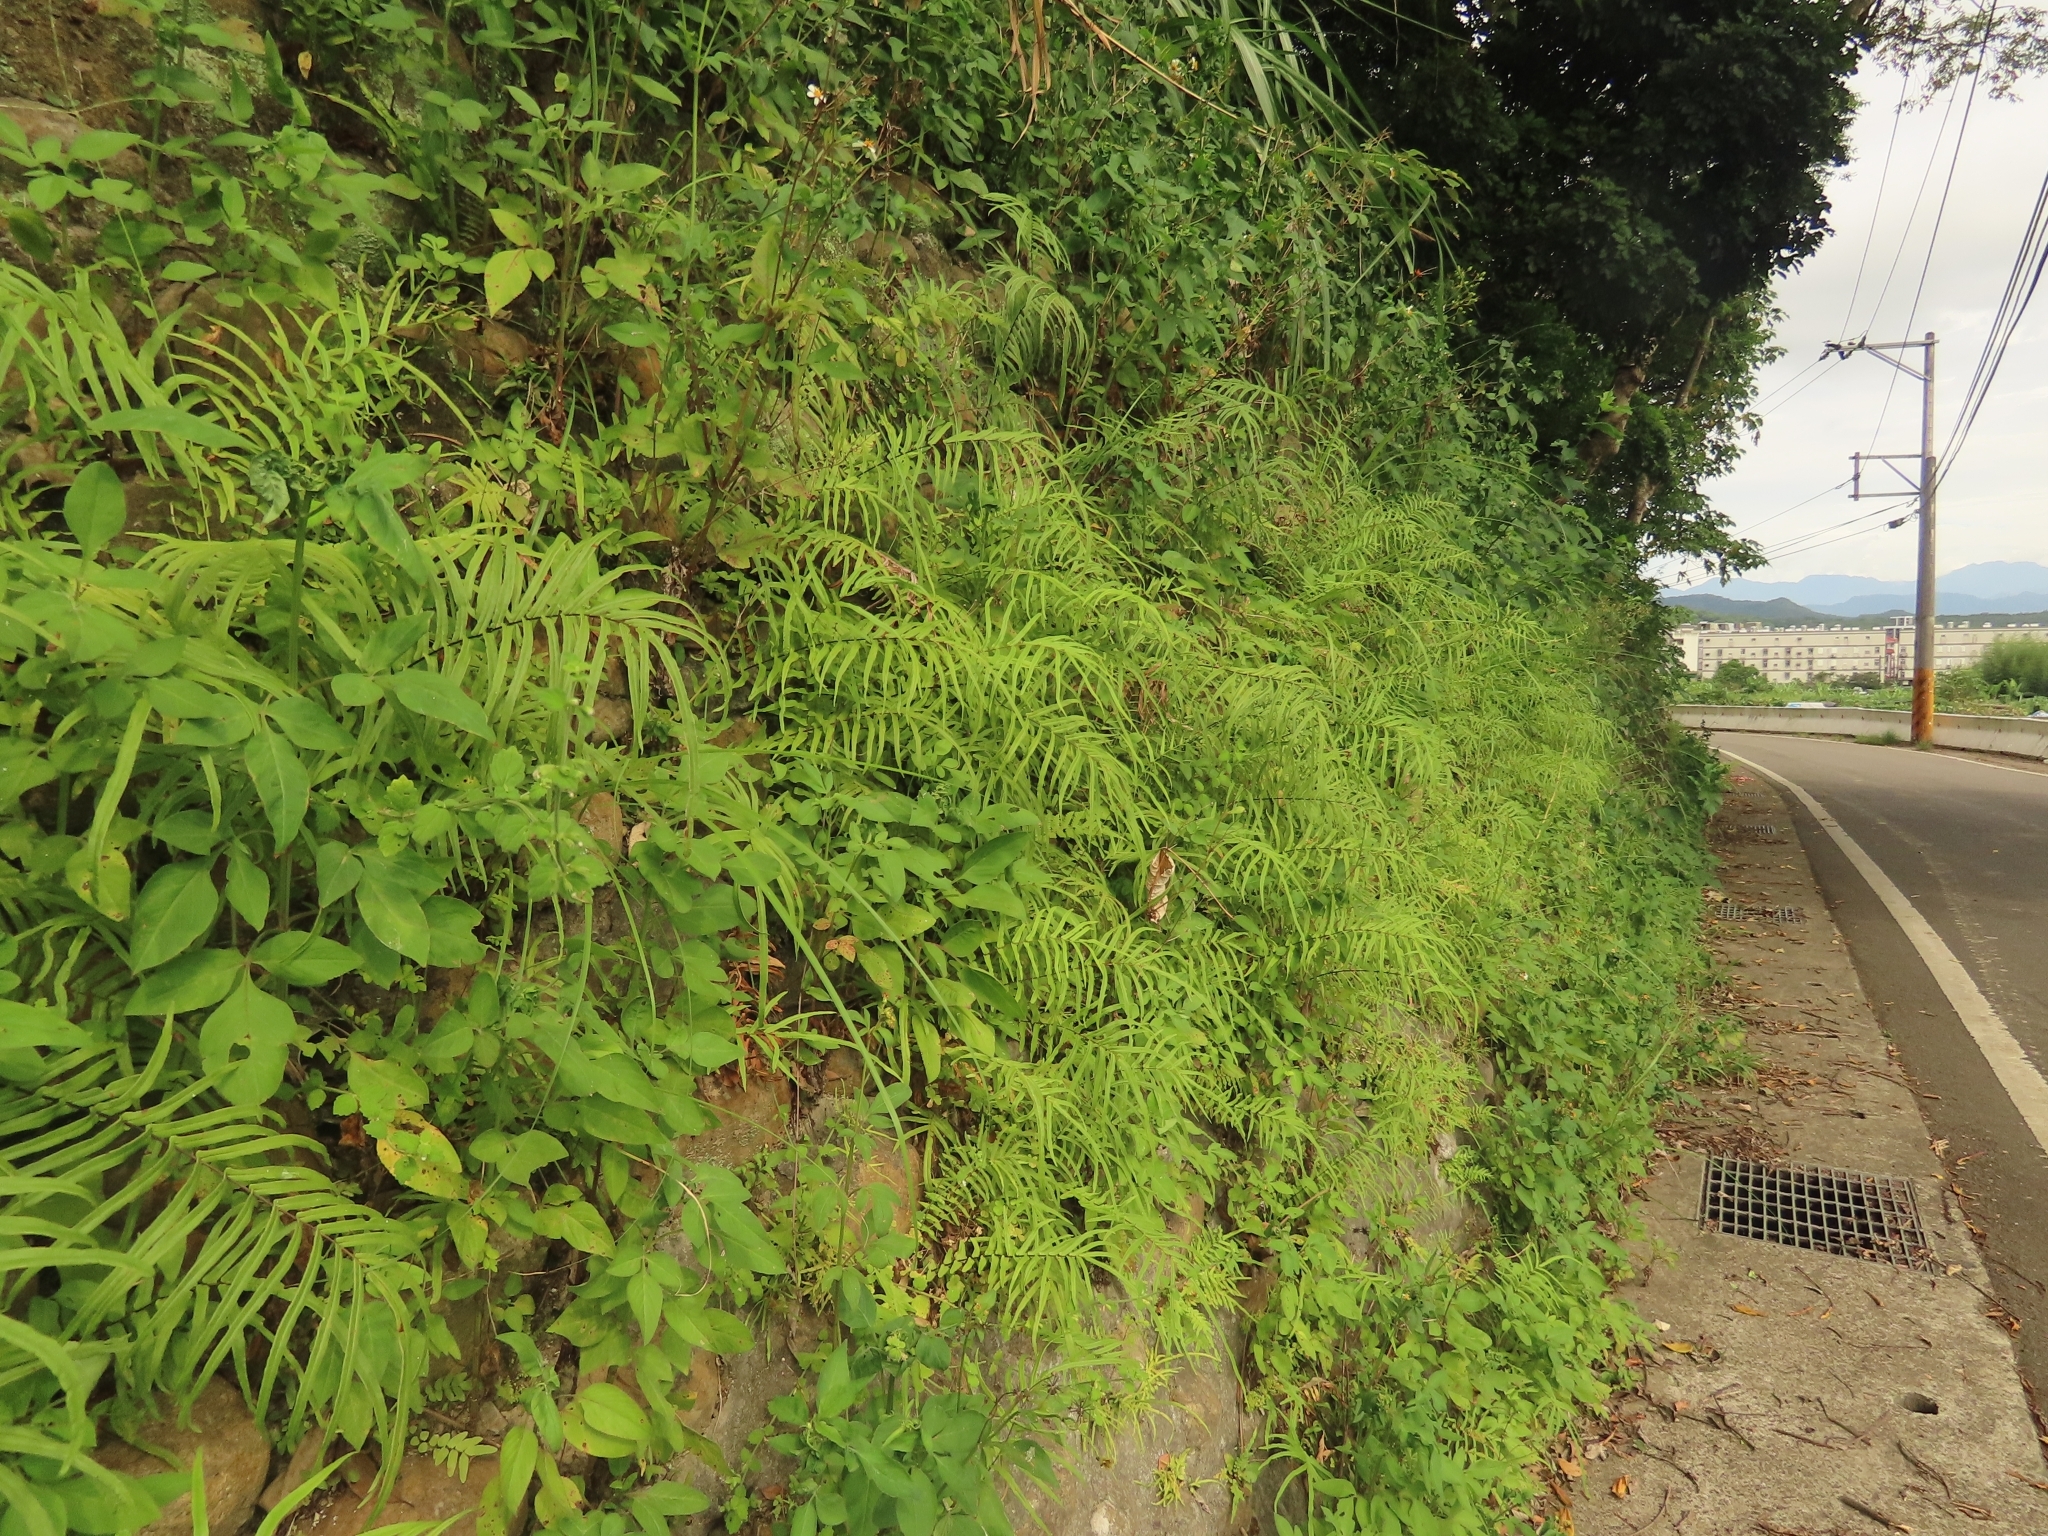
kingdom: Plantae
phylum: Tracheophyta
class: Polypodiopsida
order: Polypodiales
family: Pteridaceae
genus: Pteris
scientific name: Pteris vittata
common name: Ladder brake
